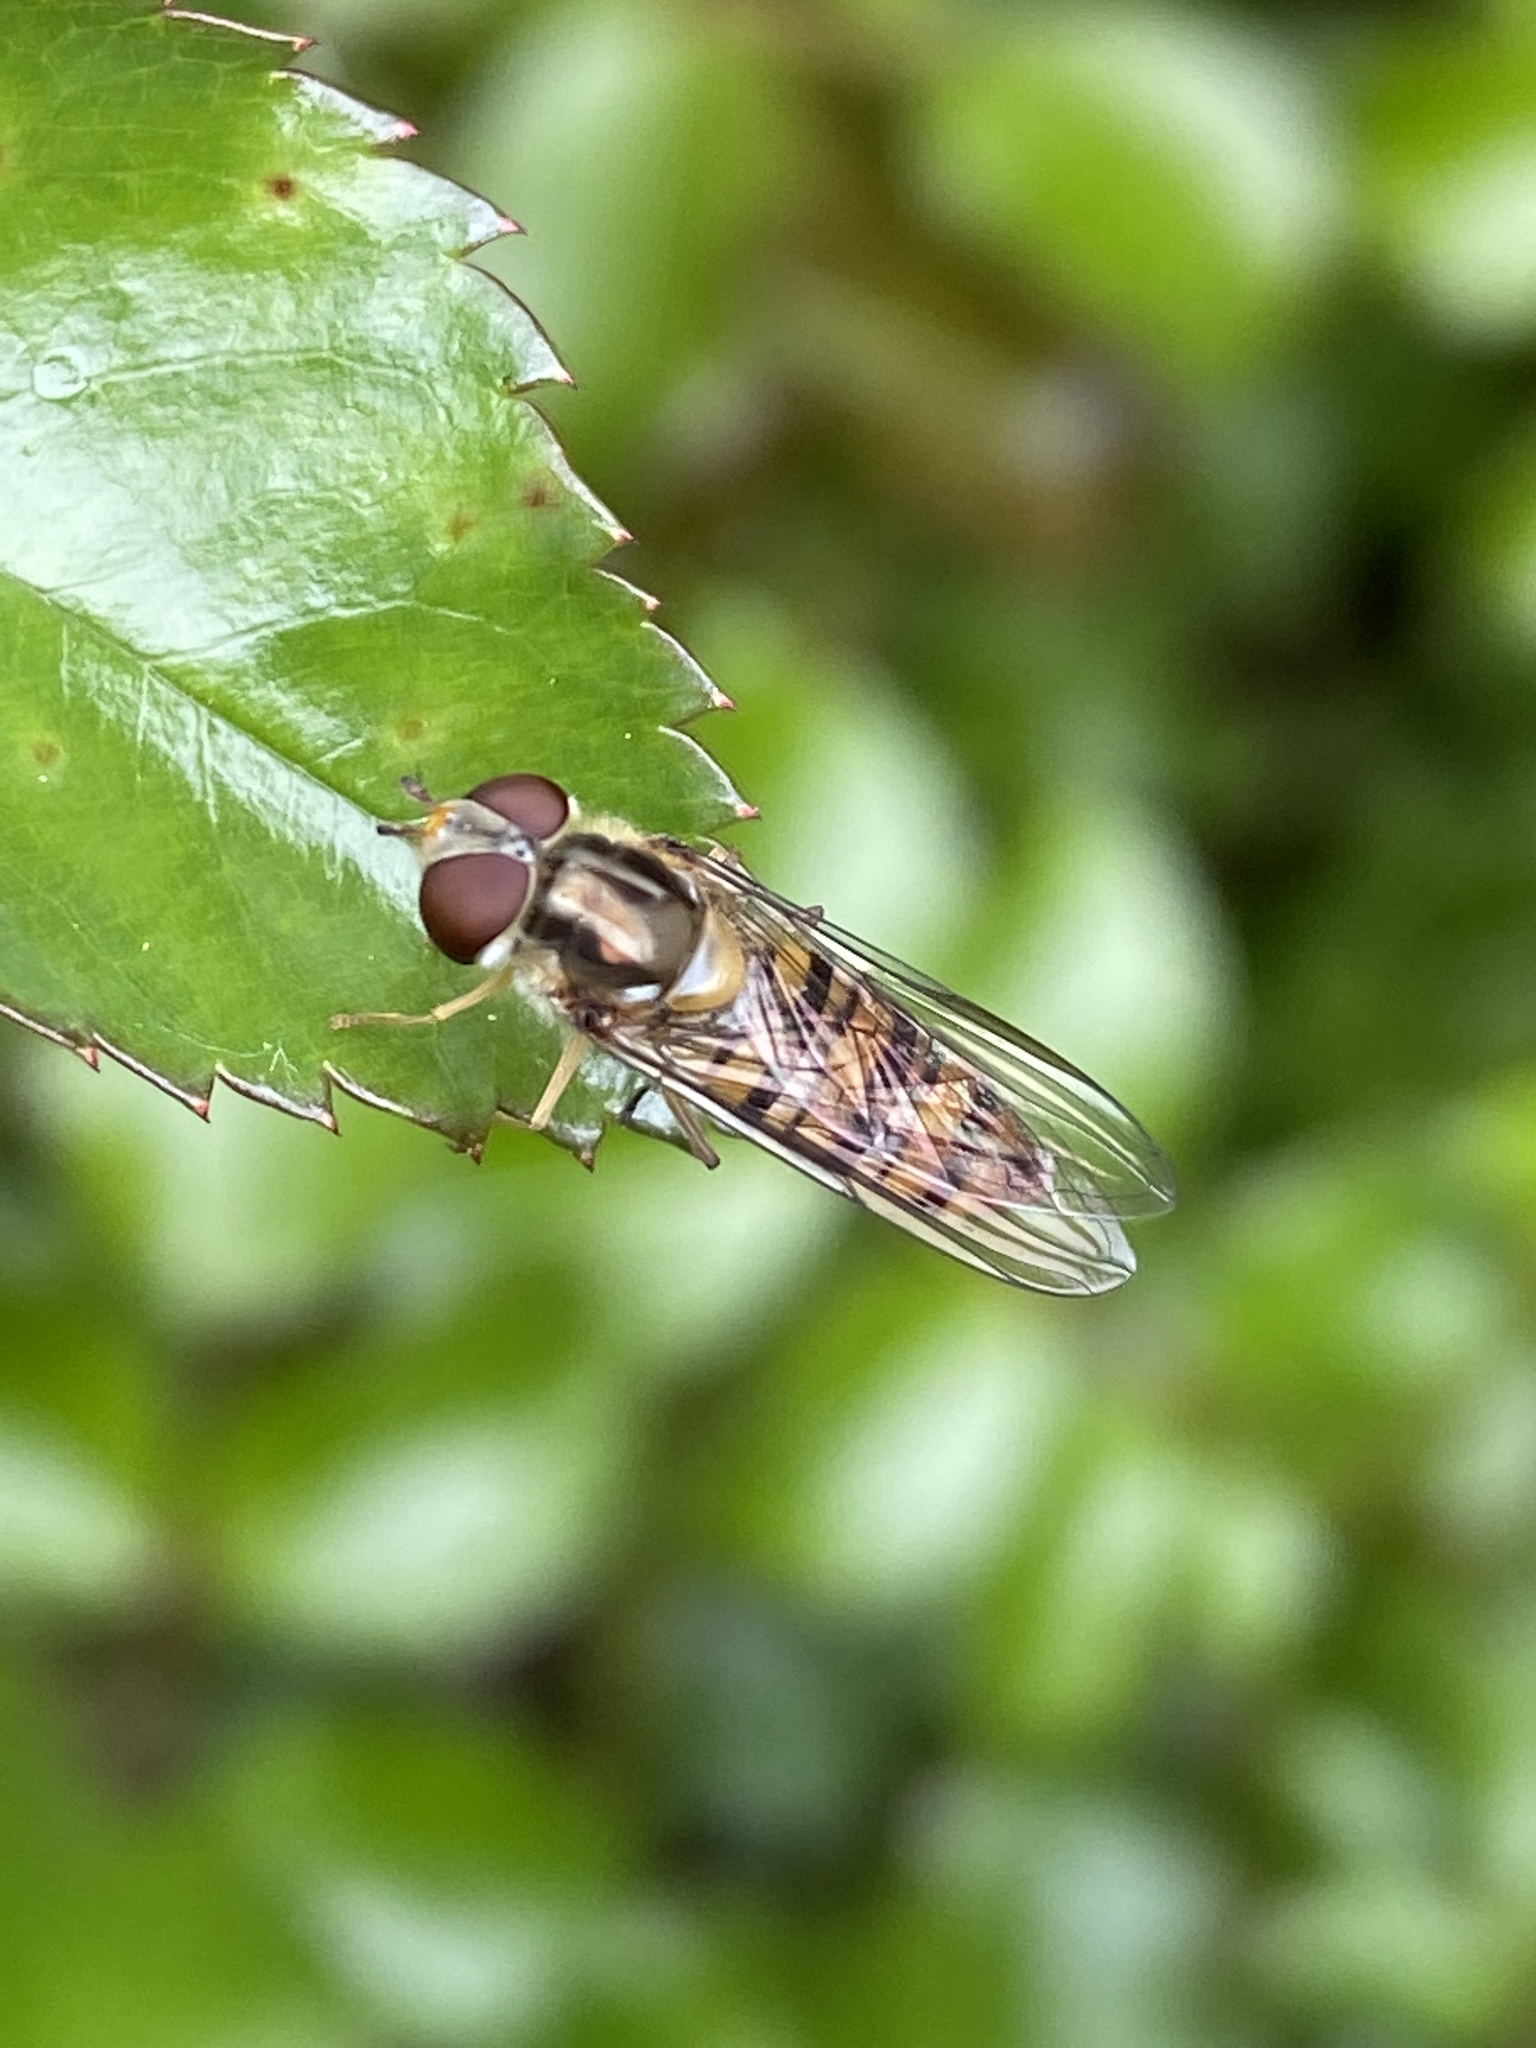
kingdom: Animalia
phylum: Arthropoda
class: Insecta
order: Diptera
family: Syrphidae
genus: Episyrphus
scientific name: Episyrphus balteatus
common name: Marmalade hoverfly
